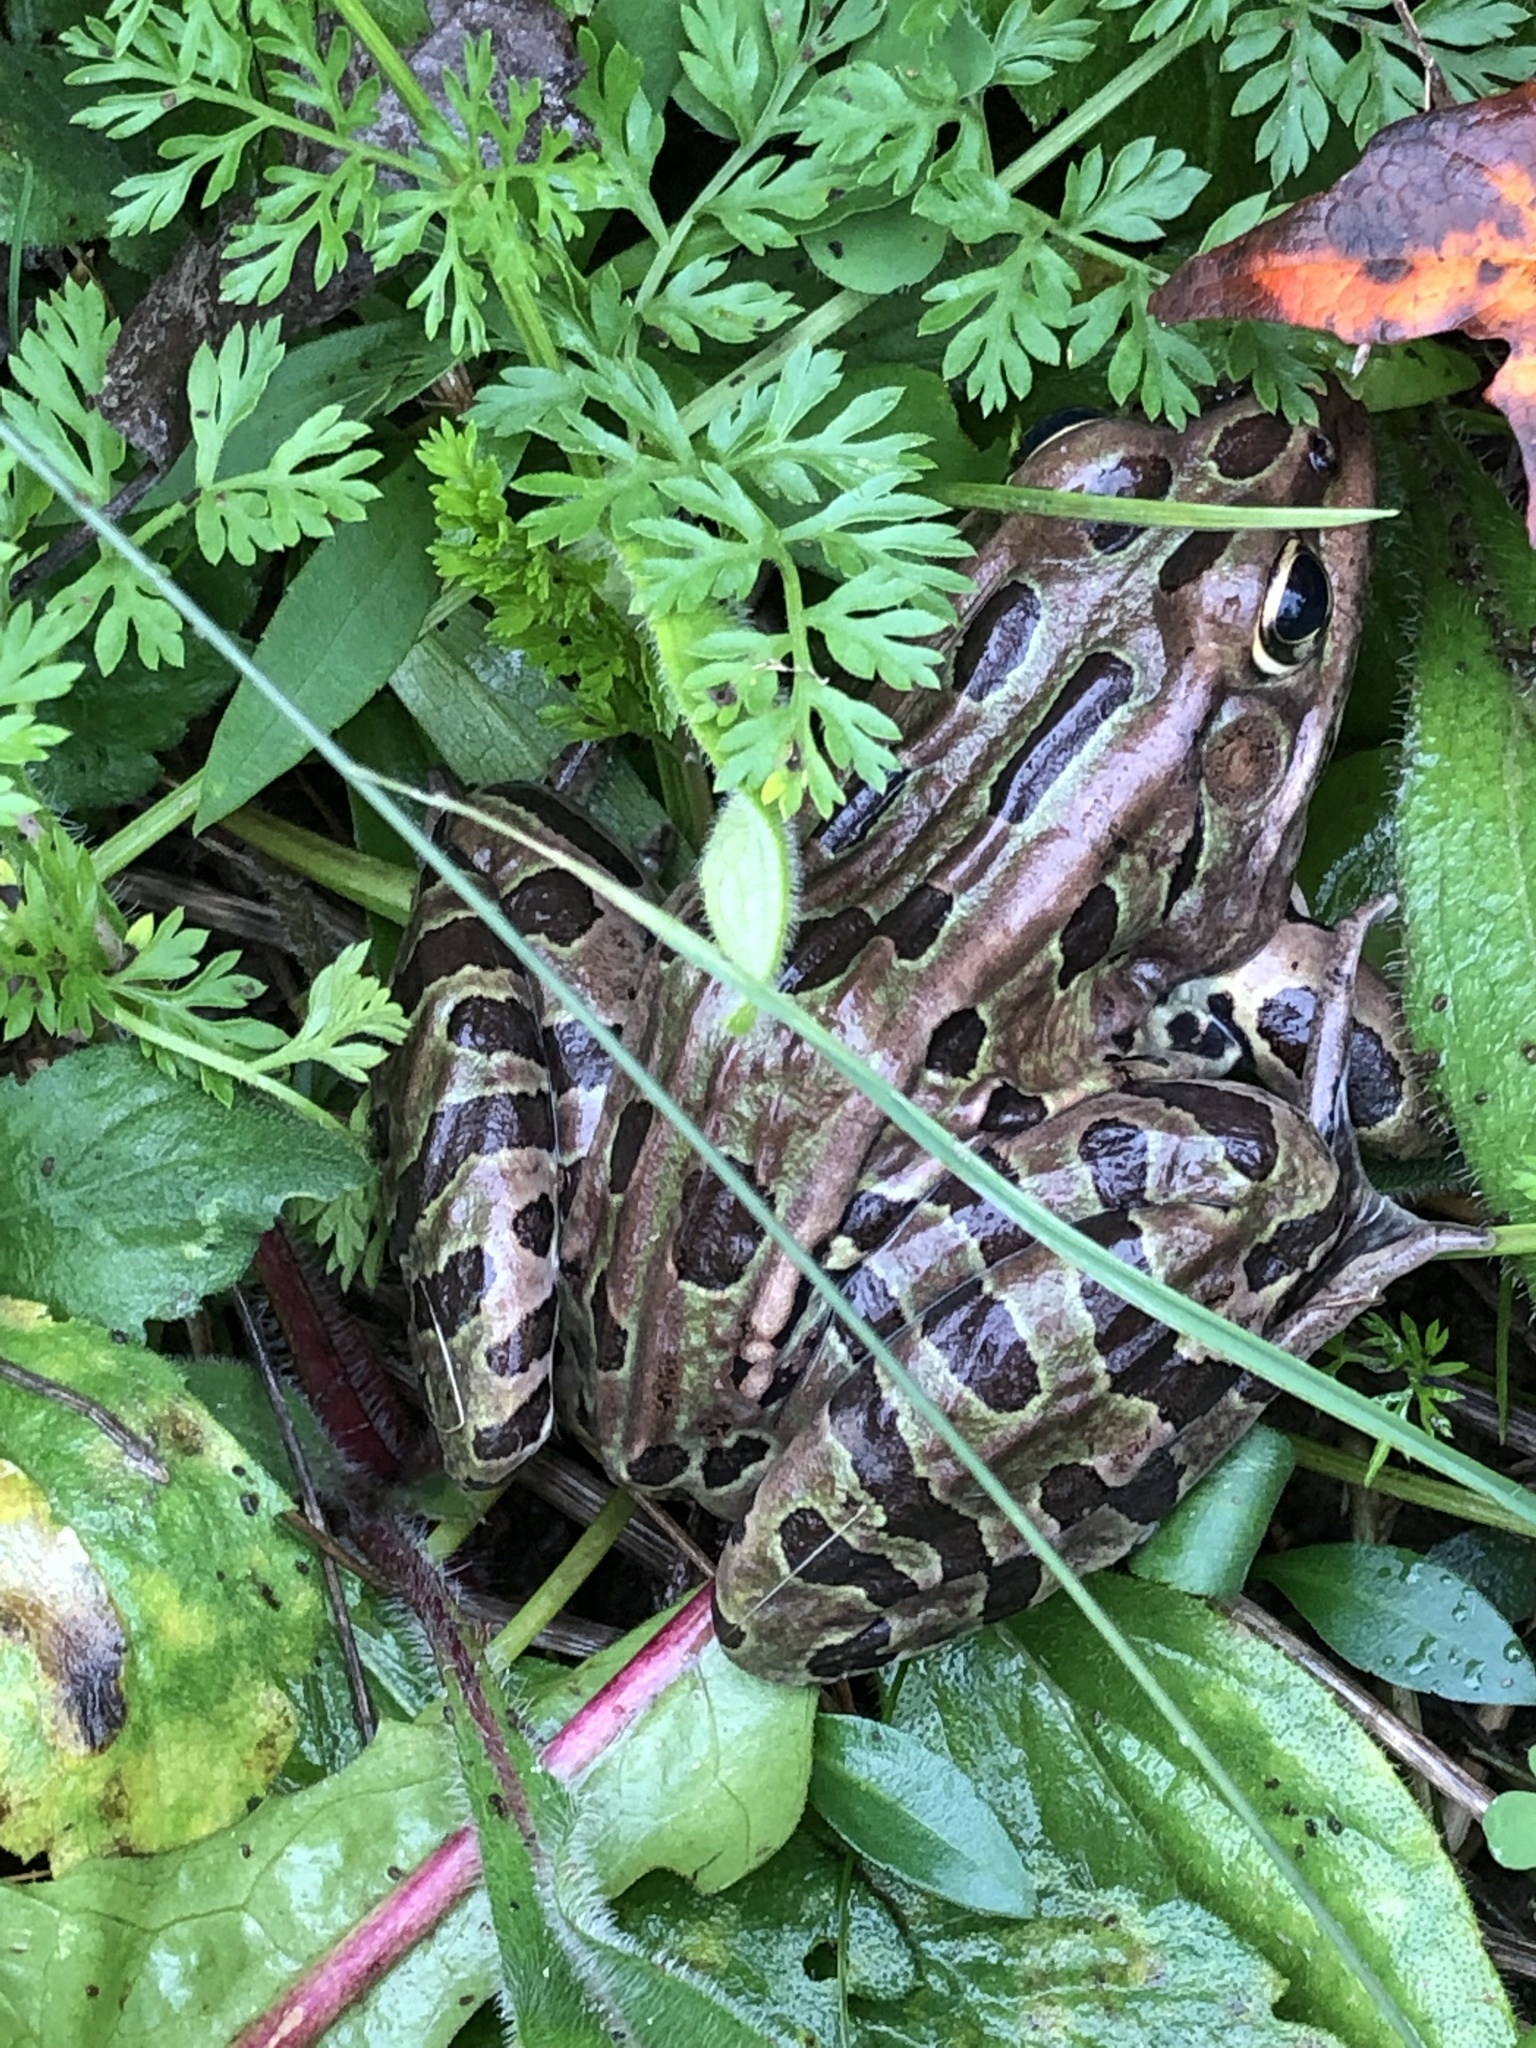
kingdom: Animalia
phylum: Chordata
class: Amphibia
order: Anura
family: Ranidae
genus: Lithobates
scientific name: Lithobates pipiens
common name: Northern leopard frog
